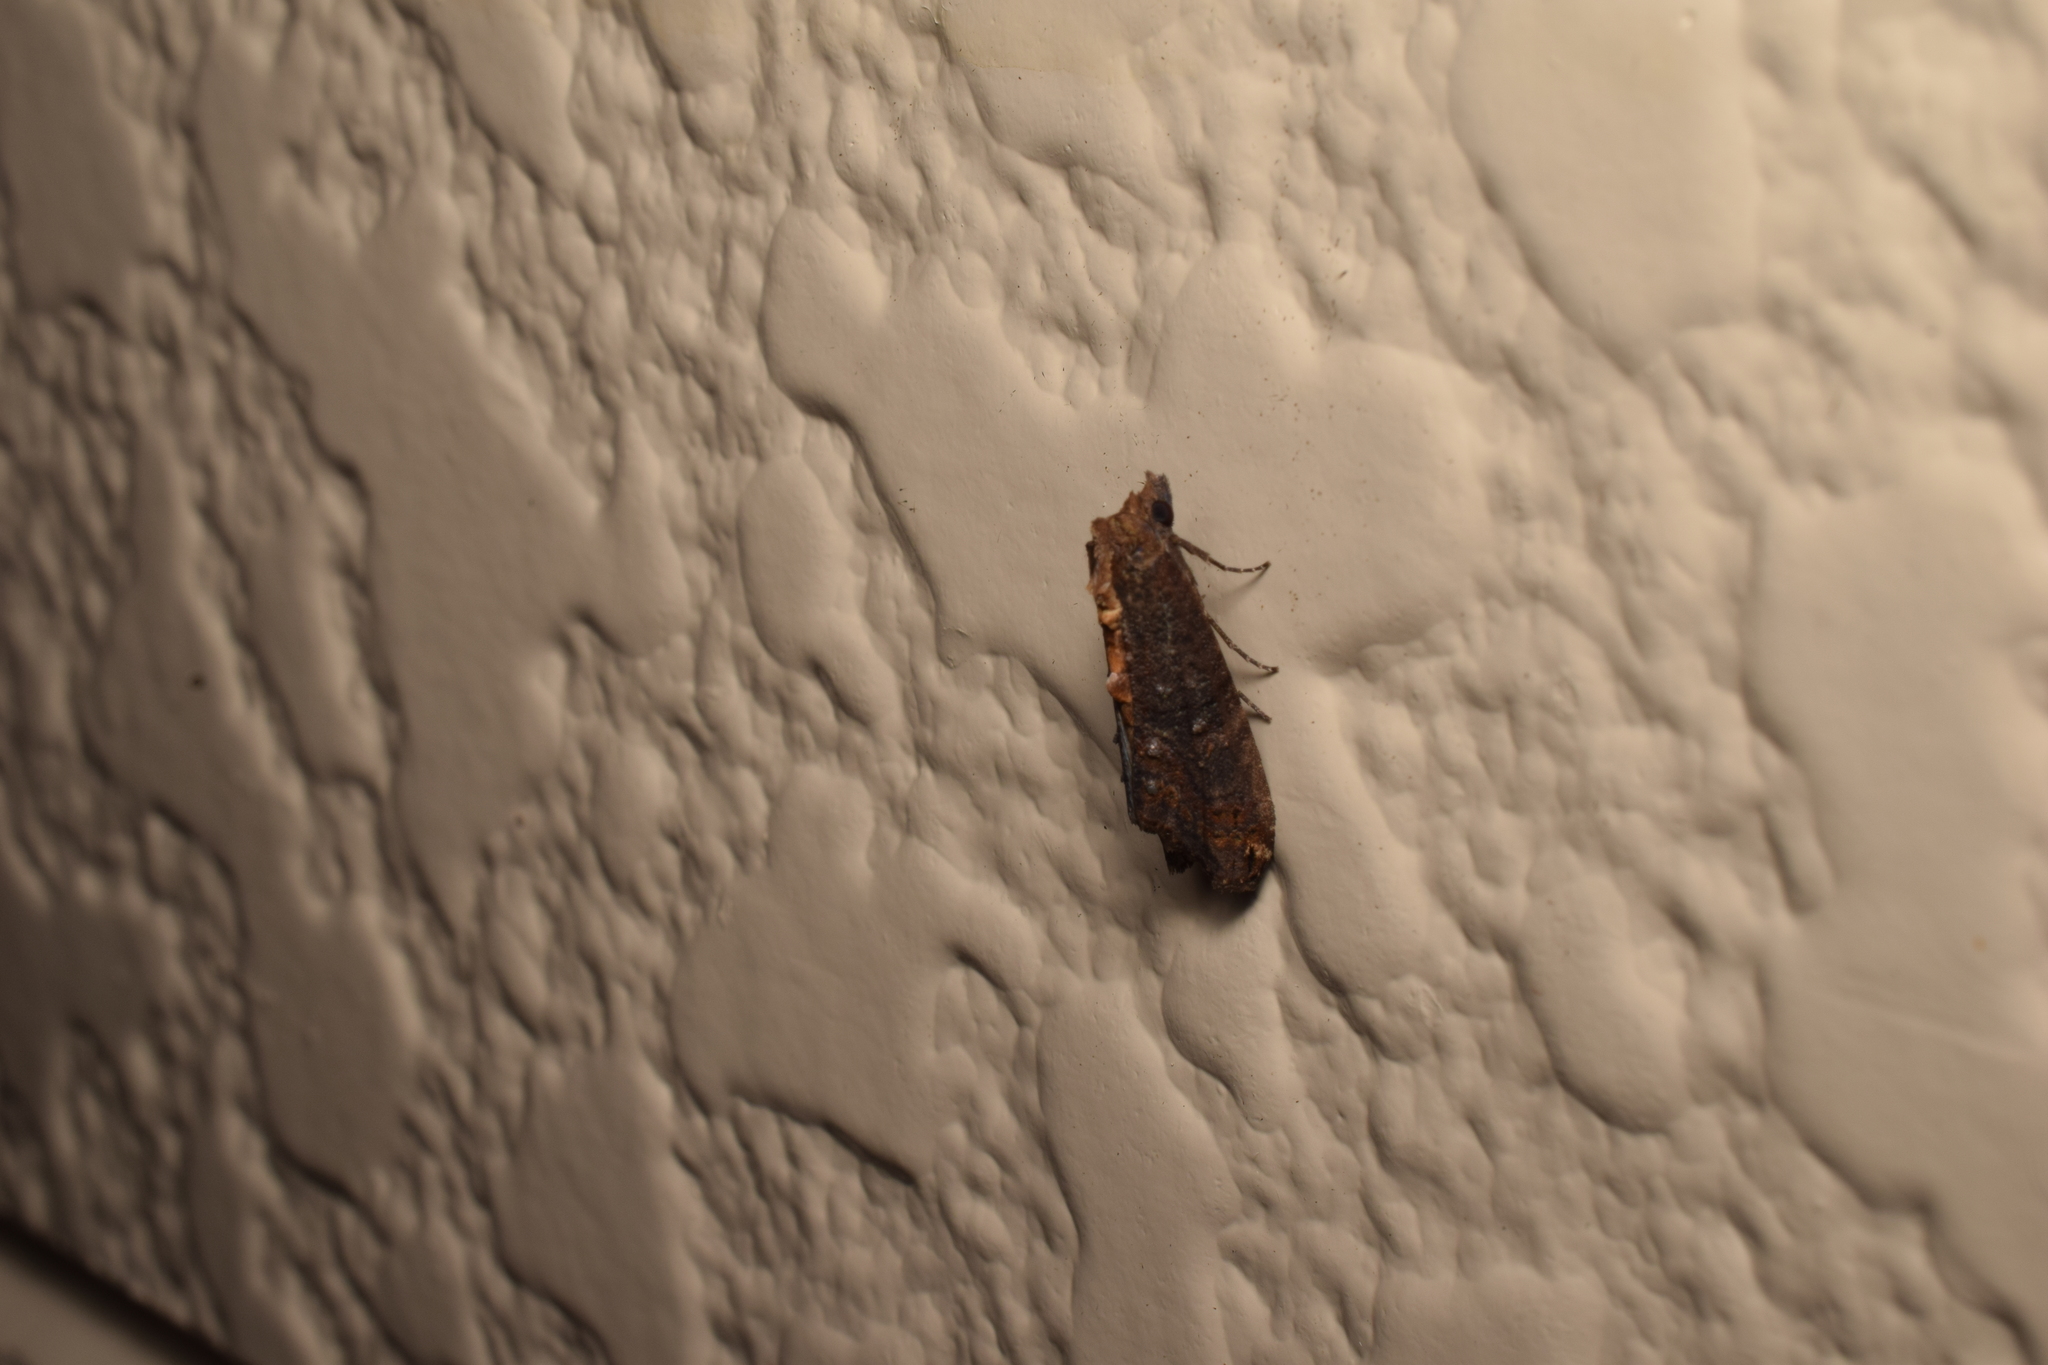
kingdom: Animalia
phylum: Arthropoda
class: Insecta
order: Lepidoptera
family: Euteliidae
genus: Lophoptera
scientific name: Lophoptera hayesi
